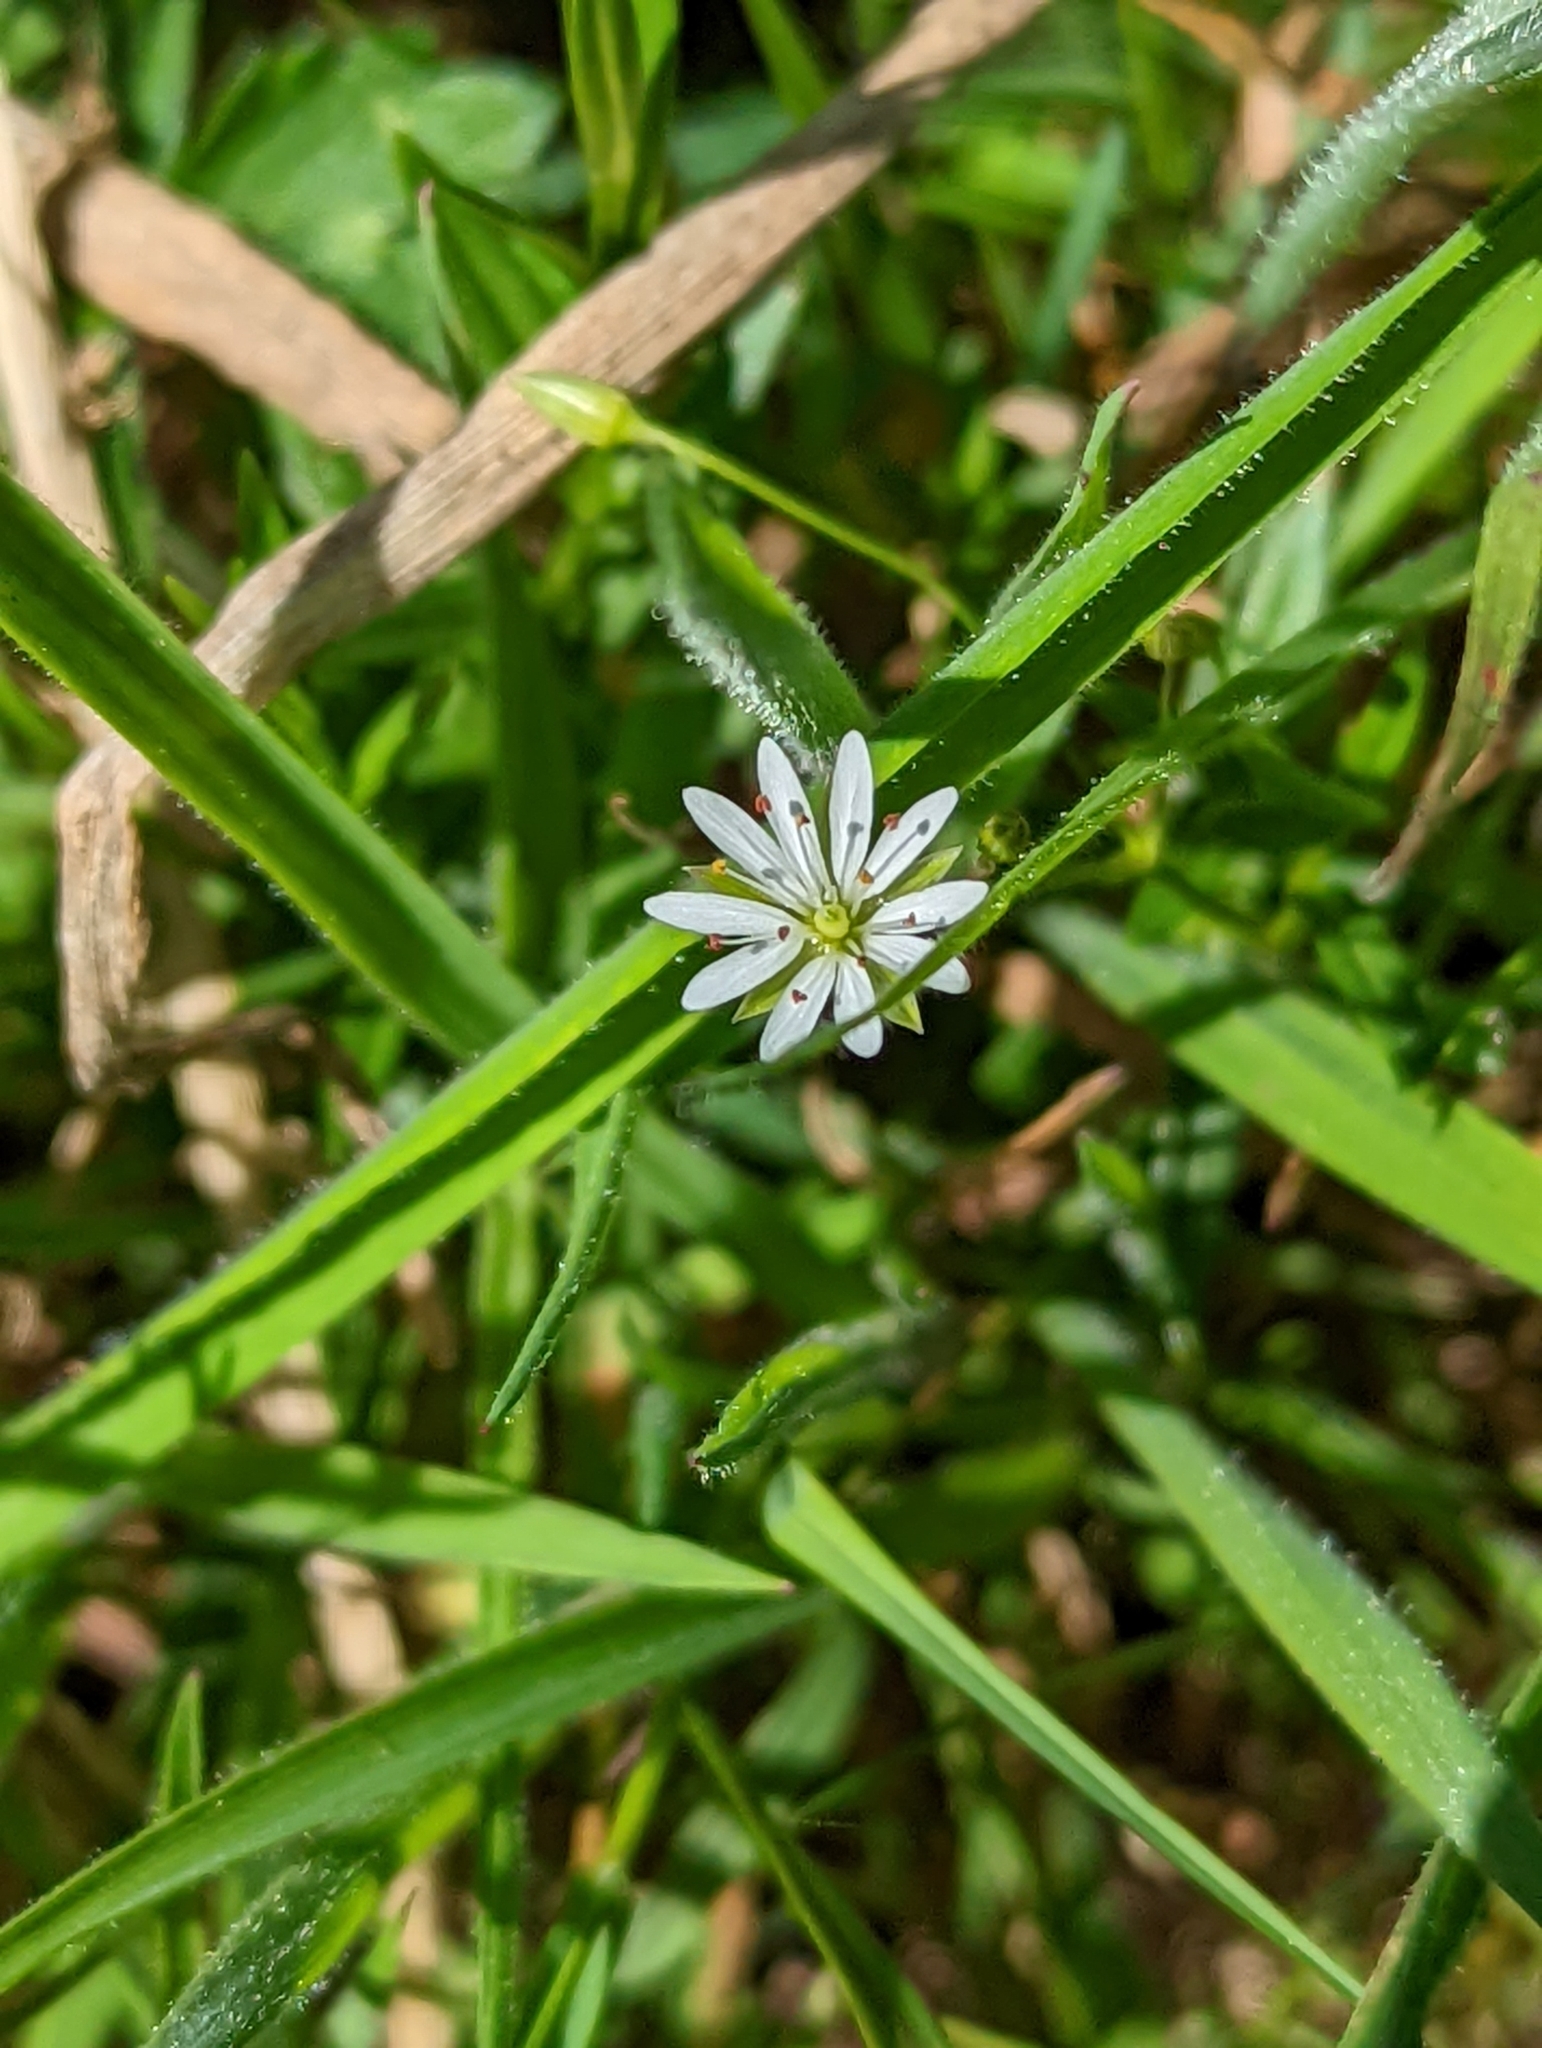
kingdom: Plantae
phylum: Tracheophyta
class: Magnoliopsida
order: Caryophyllales
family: Caryophyllaceae
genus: Stellaria
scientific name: Stellaria graminea
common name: Grass-like starwort
